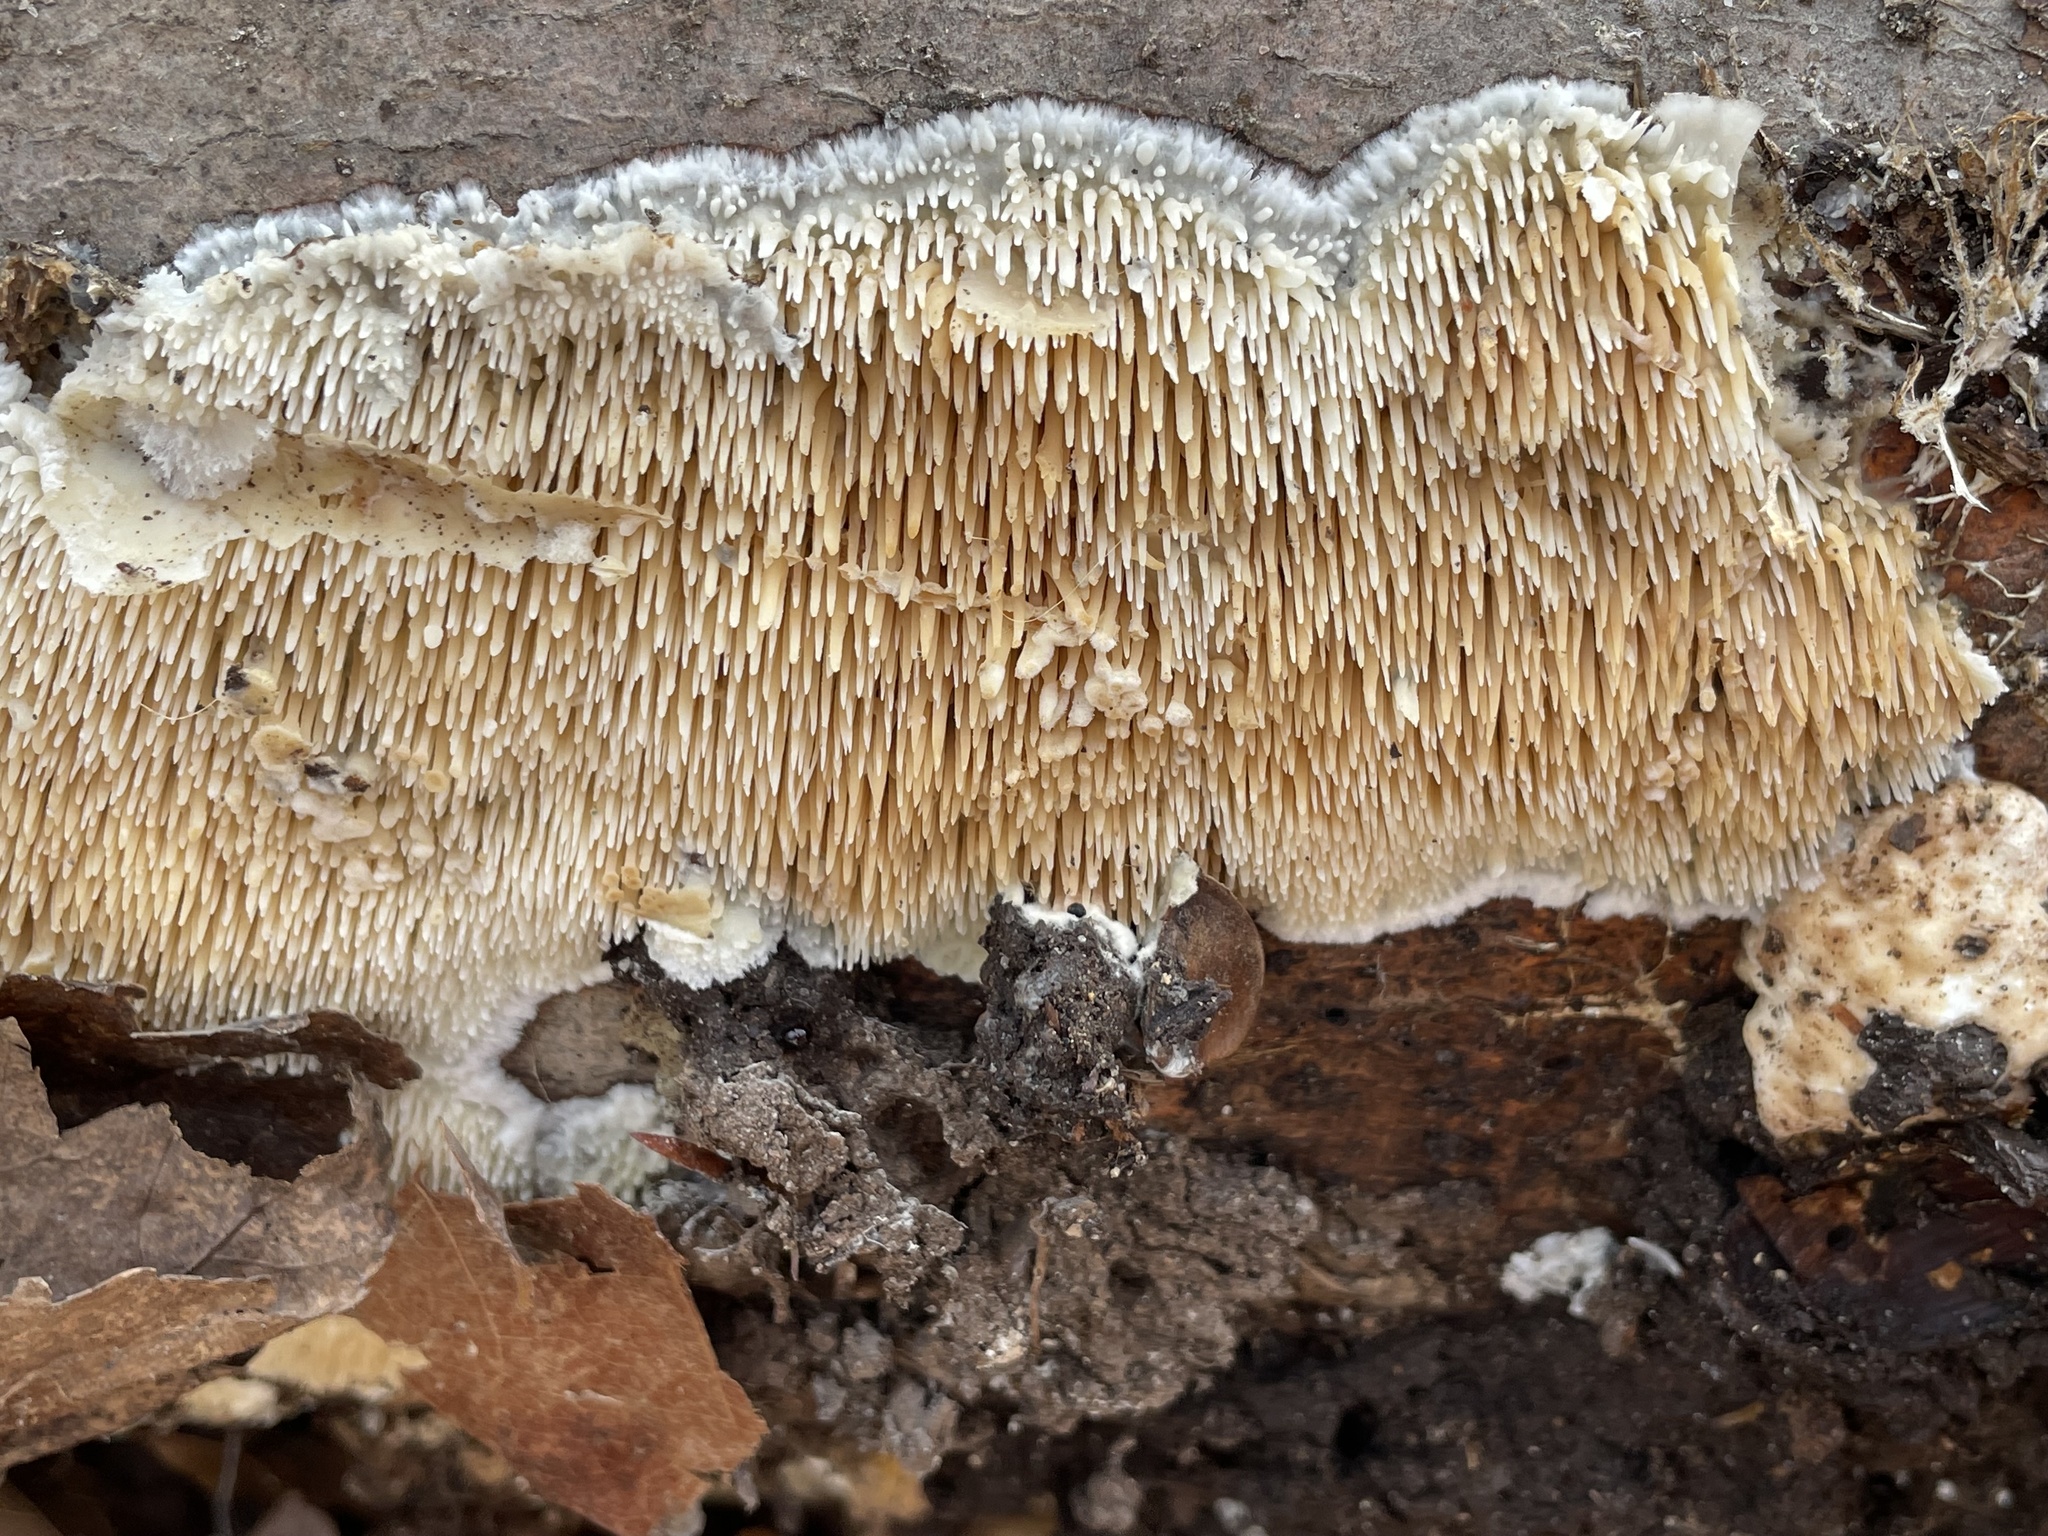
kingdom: Fungi
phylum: Basidiomycota
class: Agaricomycetes
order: Agaricales
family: Radulomycetaceae
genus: Radulomyces
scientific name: Radulomyces copelandii
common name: Asian beauty
